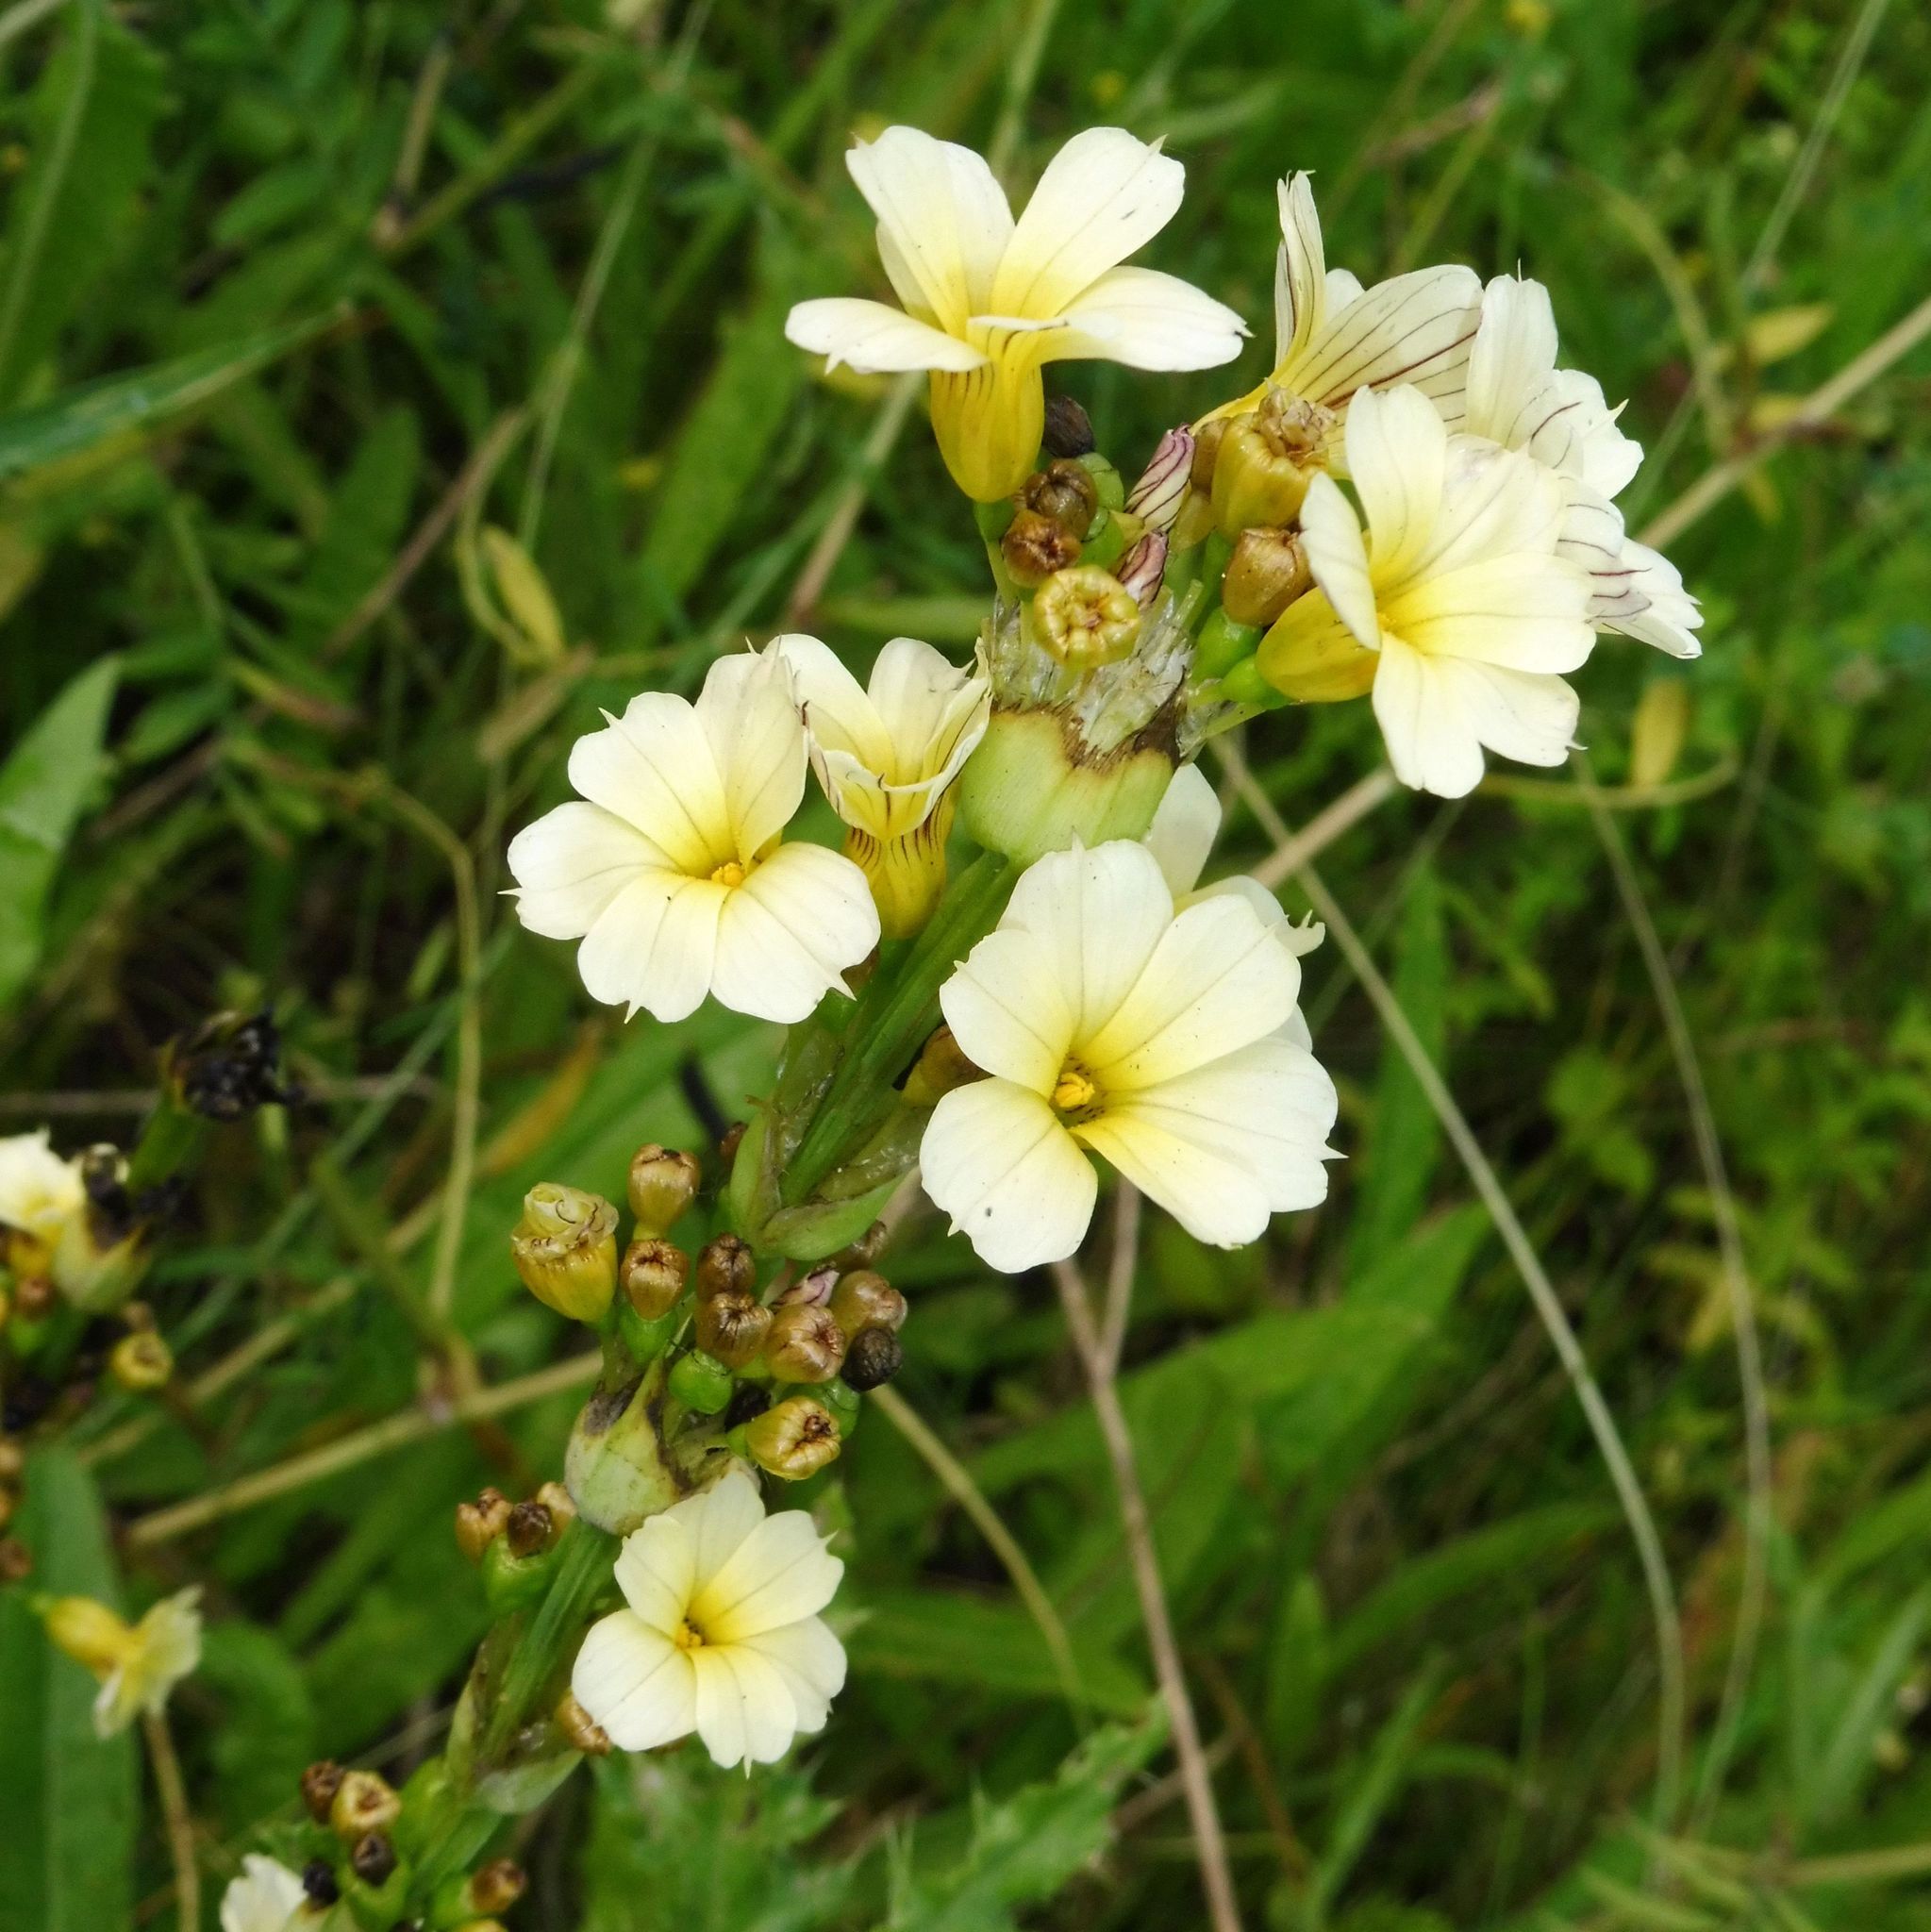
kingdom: Plantae
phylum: Tracheophyta
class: Liliopsida
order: Asparagales
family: Iridaceae
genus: Sisyrinchium
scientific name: Sisyrinchium striatum
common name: Pale yellow-eyed-grass
